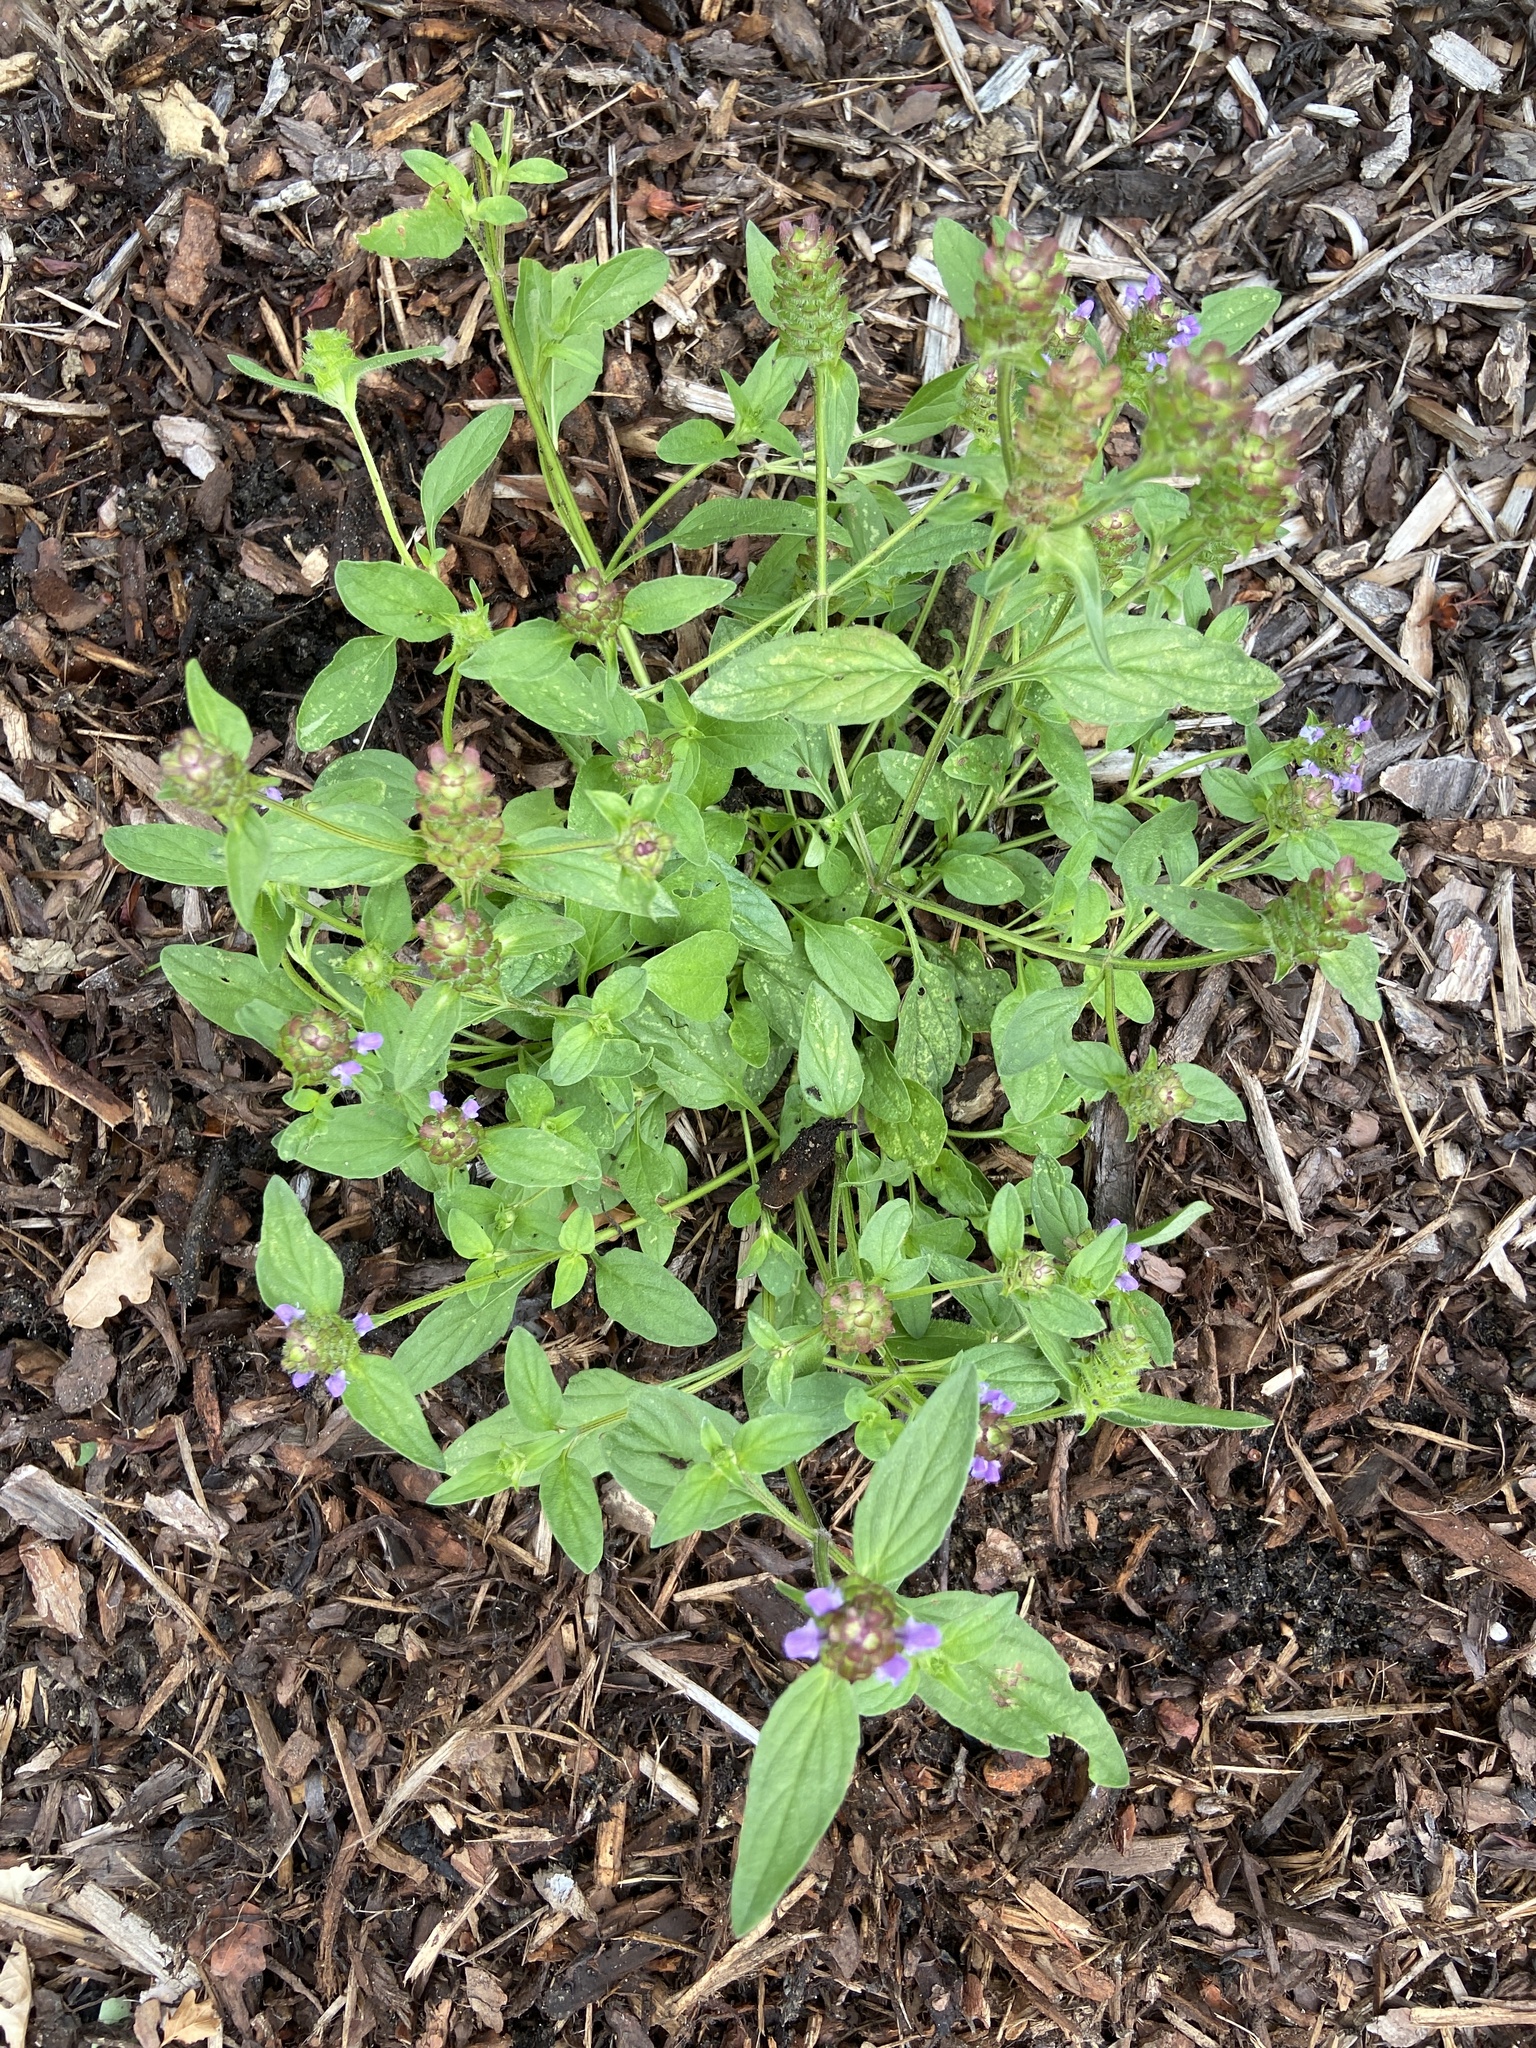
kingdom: Plantae
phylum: Tracheophyta
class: Magnoliopsida
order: Lamiales
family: Lamiaceae
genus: Prunella
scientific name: Prunella vulgaris
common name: Heal-all
